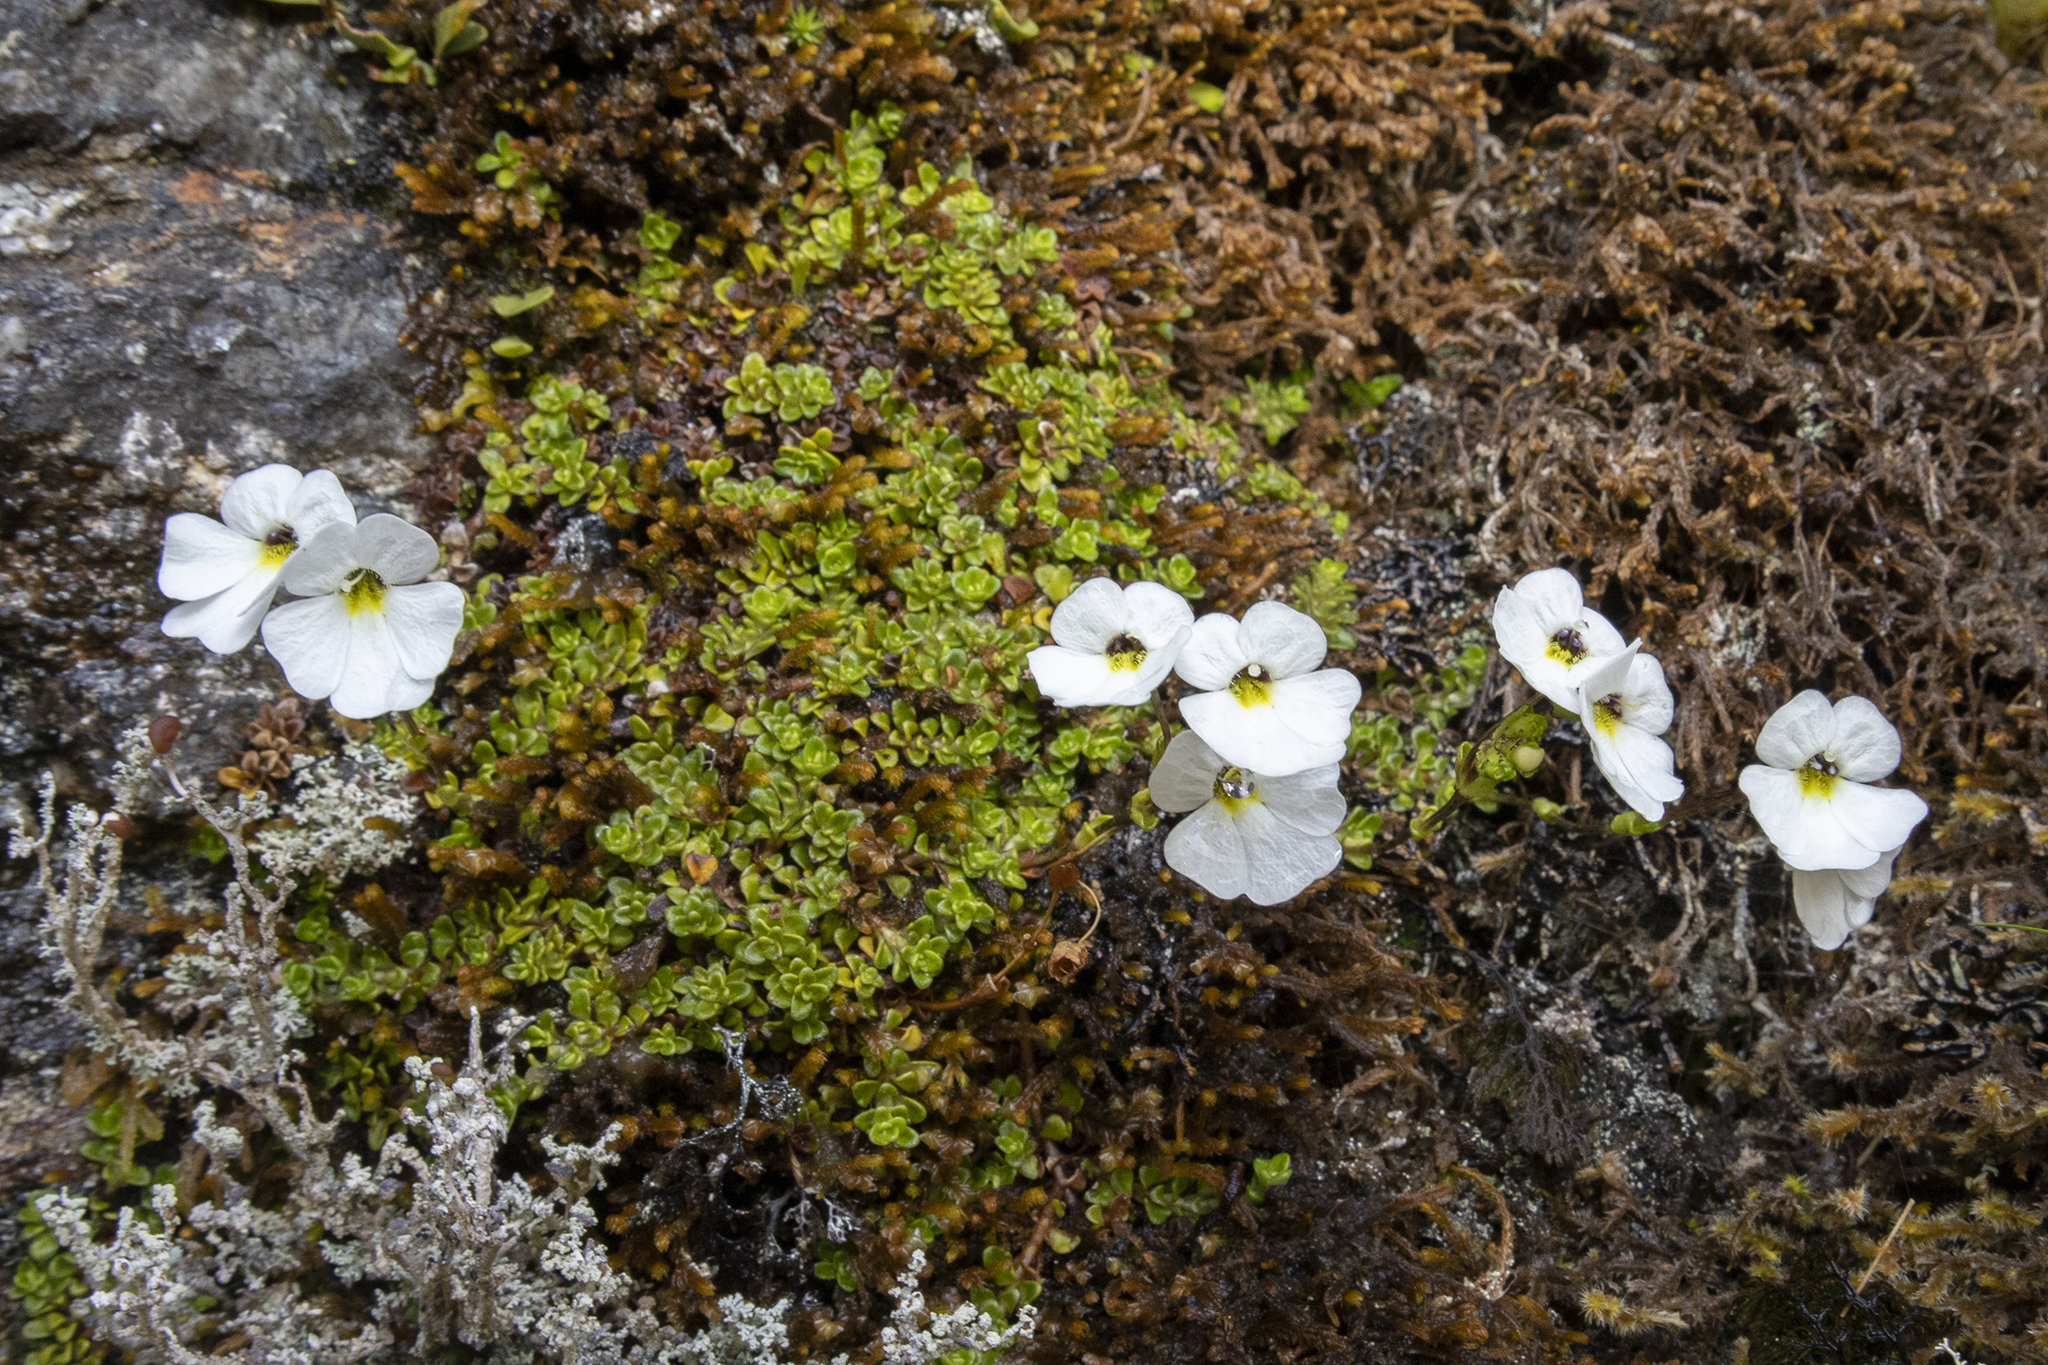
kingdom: Plantae
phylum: Tracheophyta
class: Magnoliopsida
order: Lamiales
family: Plantaginaceae
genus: Ourisia
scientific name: Ourisia caespitosa
